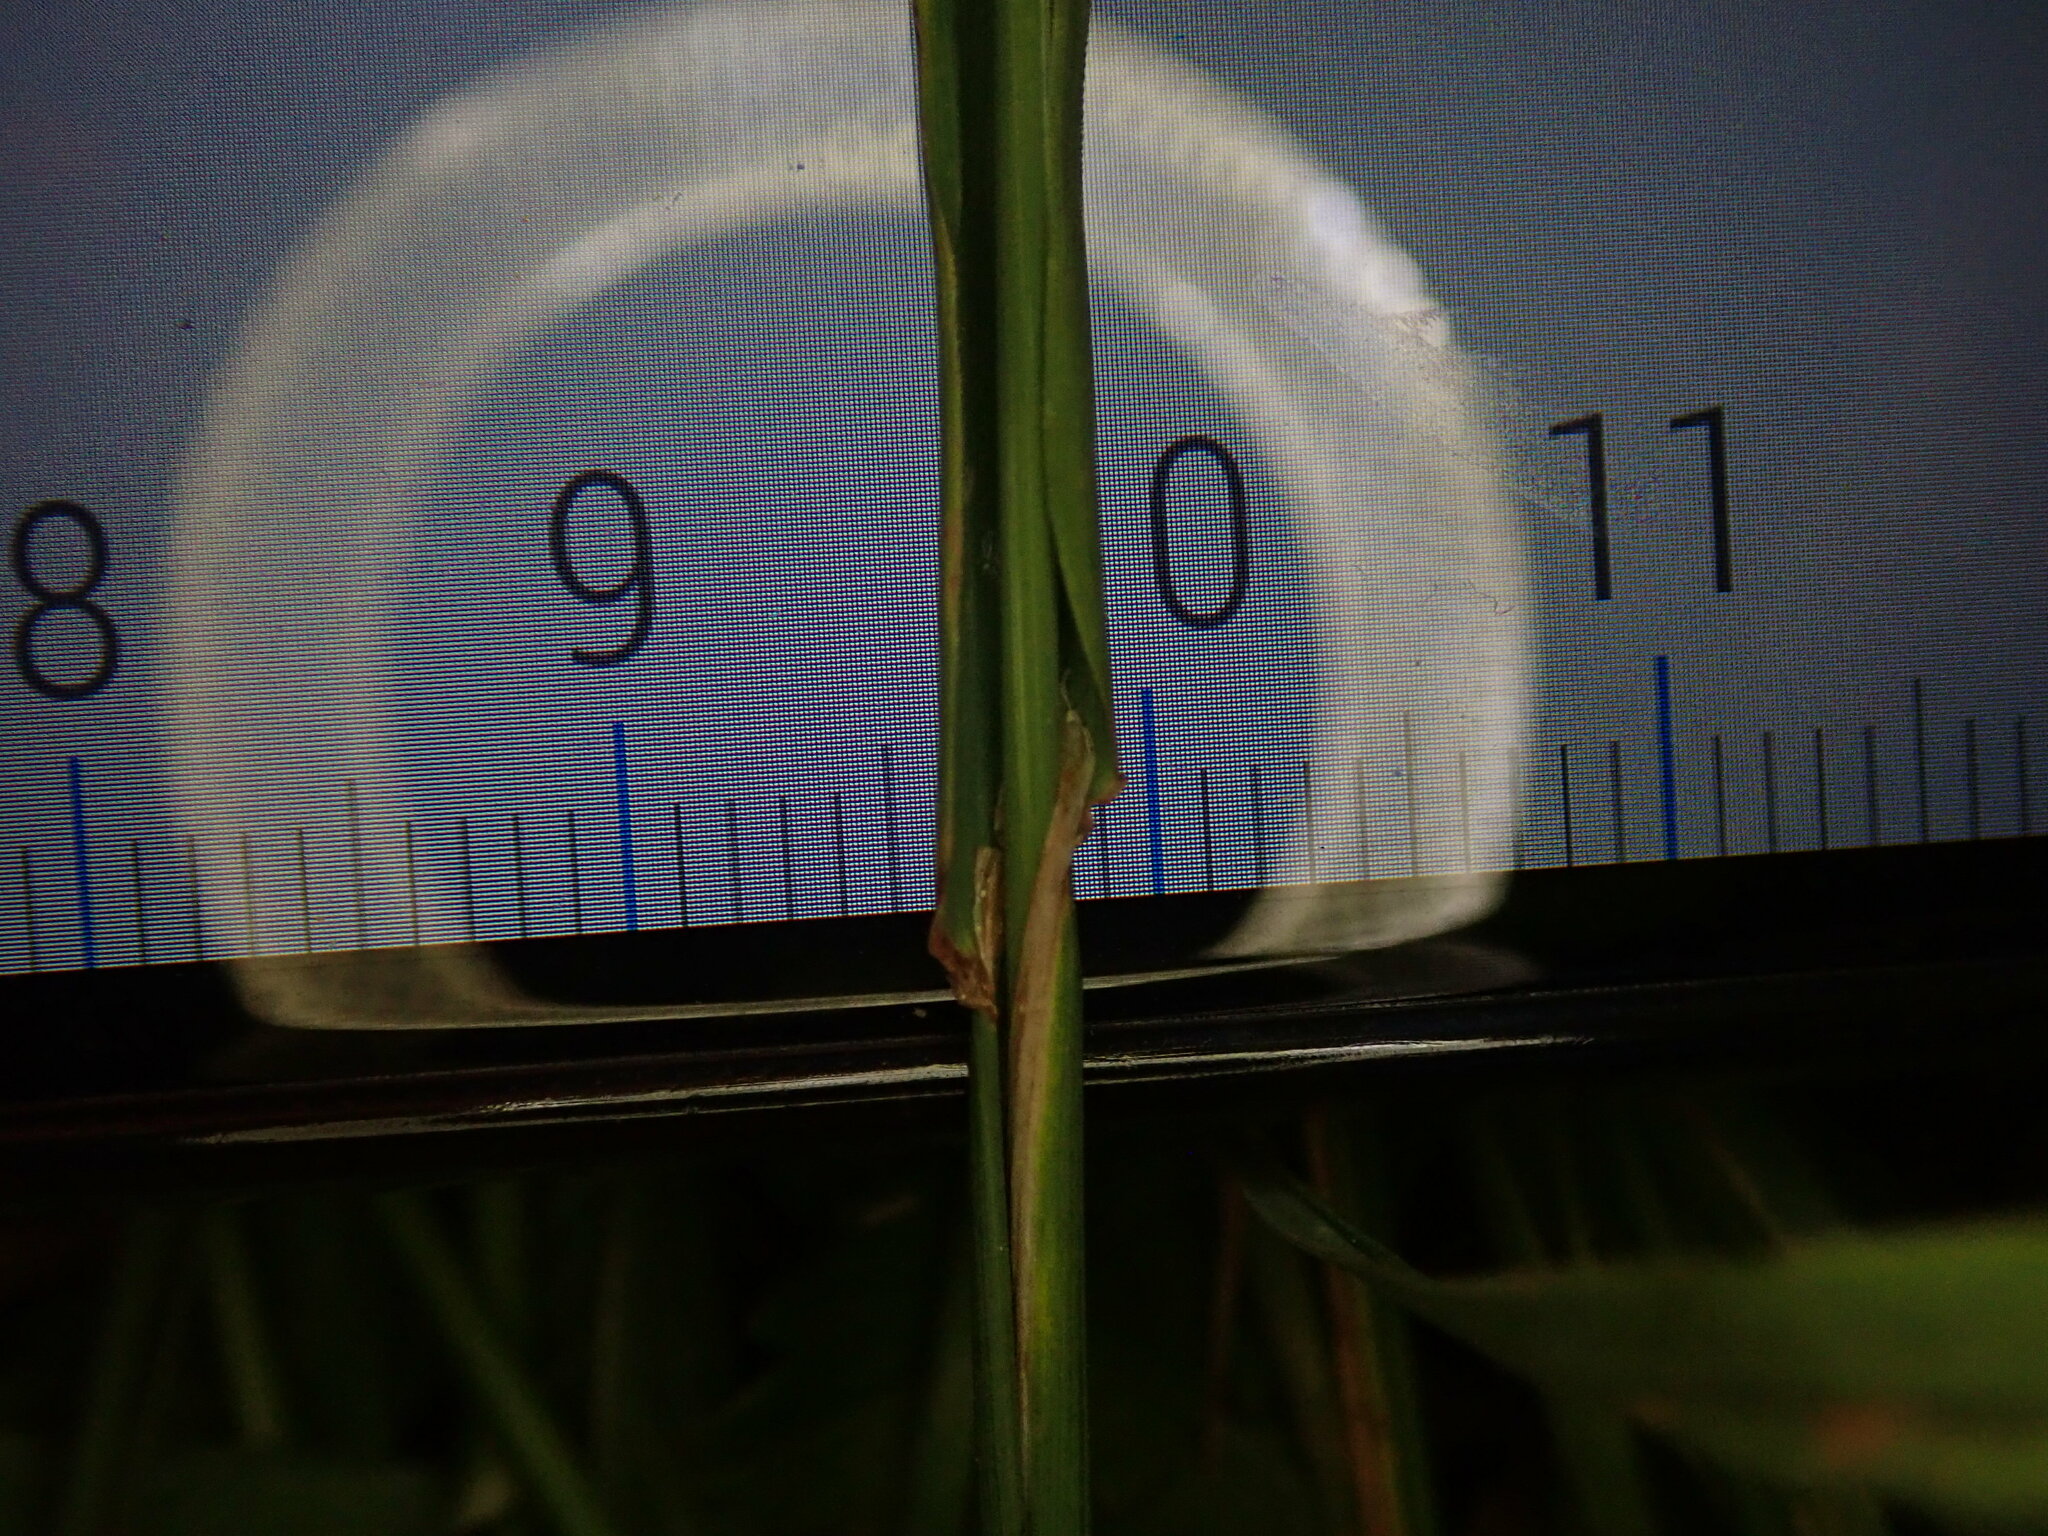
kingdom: Plantae
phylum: Tracheophyta
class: Liliopsida
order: Poales
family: Poaceae
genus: Phleum
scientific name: Phleum bertolonii
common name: Smaller cat's-tail
